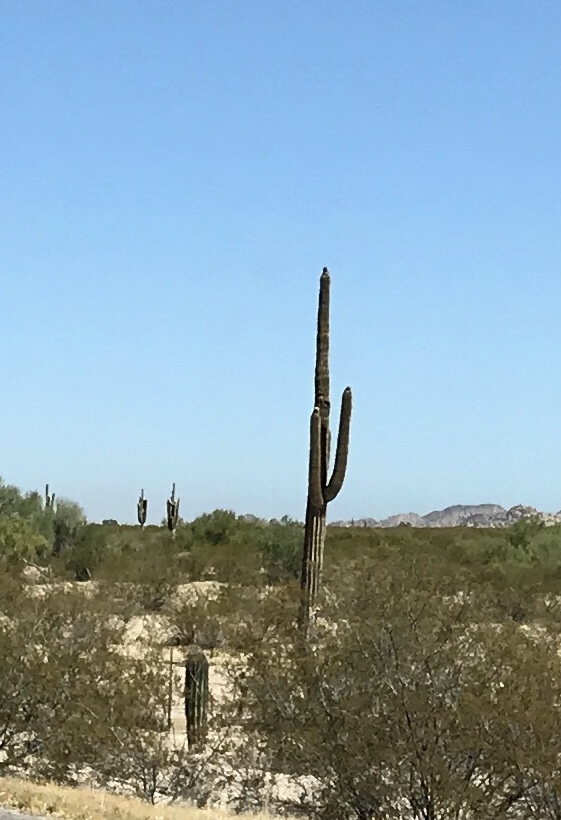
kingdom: Plantae
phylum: Tracheophyta
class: Magnoliopsida
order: Caryophyllales
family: Cactaceae
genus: Carnegiea
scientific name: Carnegiea gigantea
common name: Saguaro
